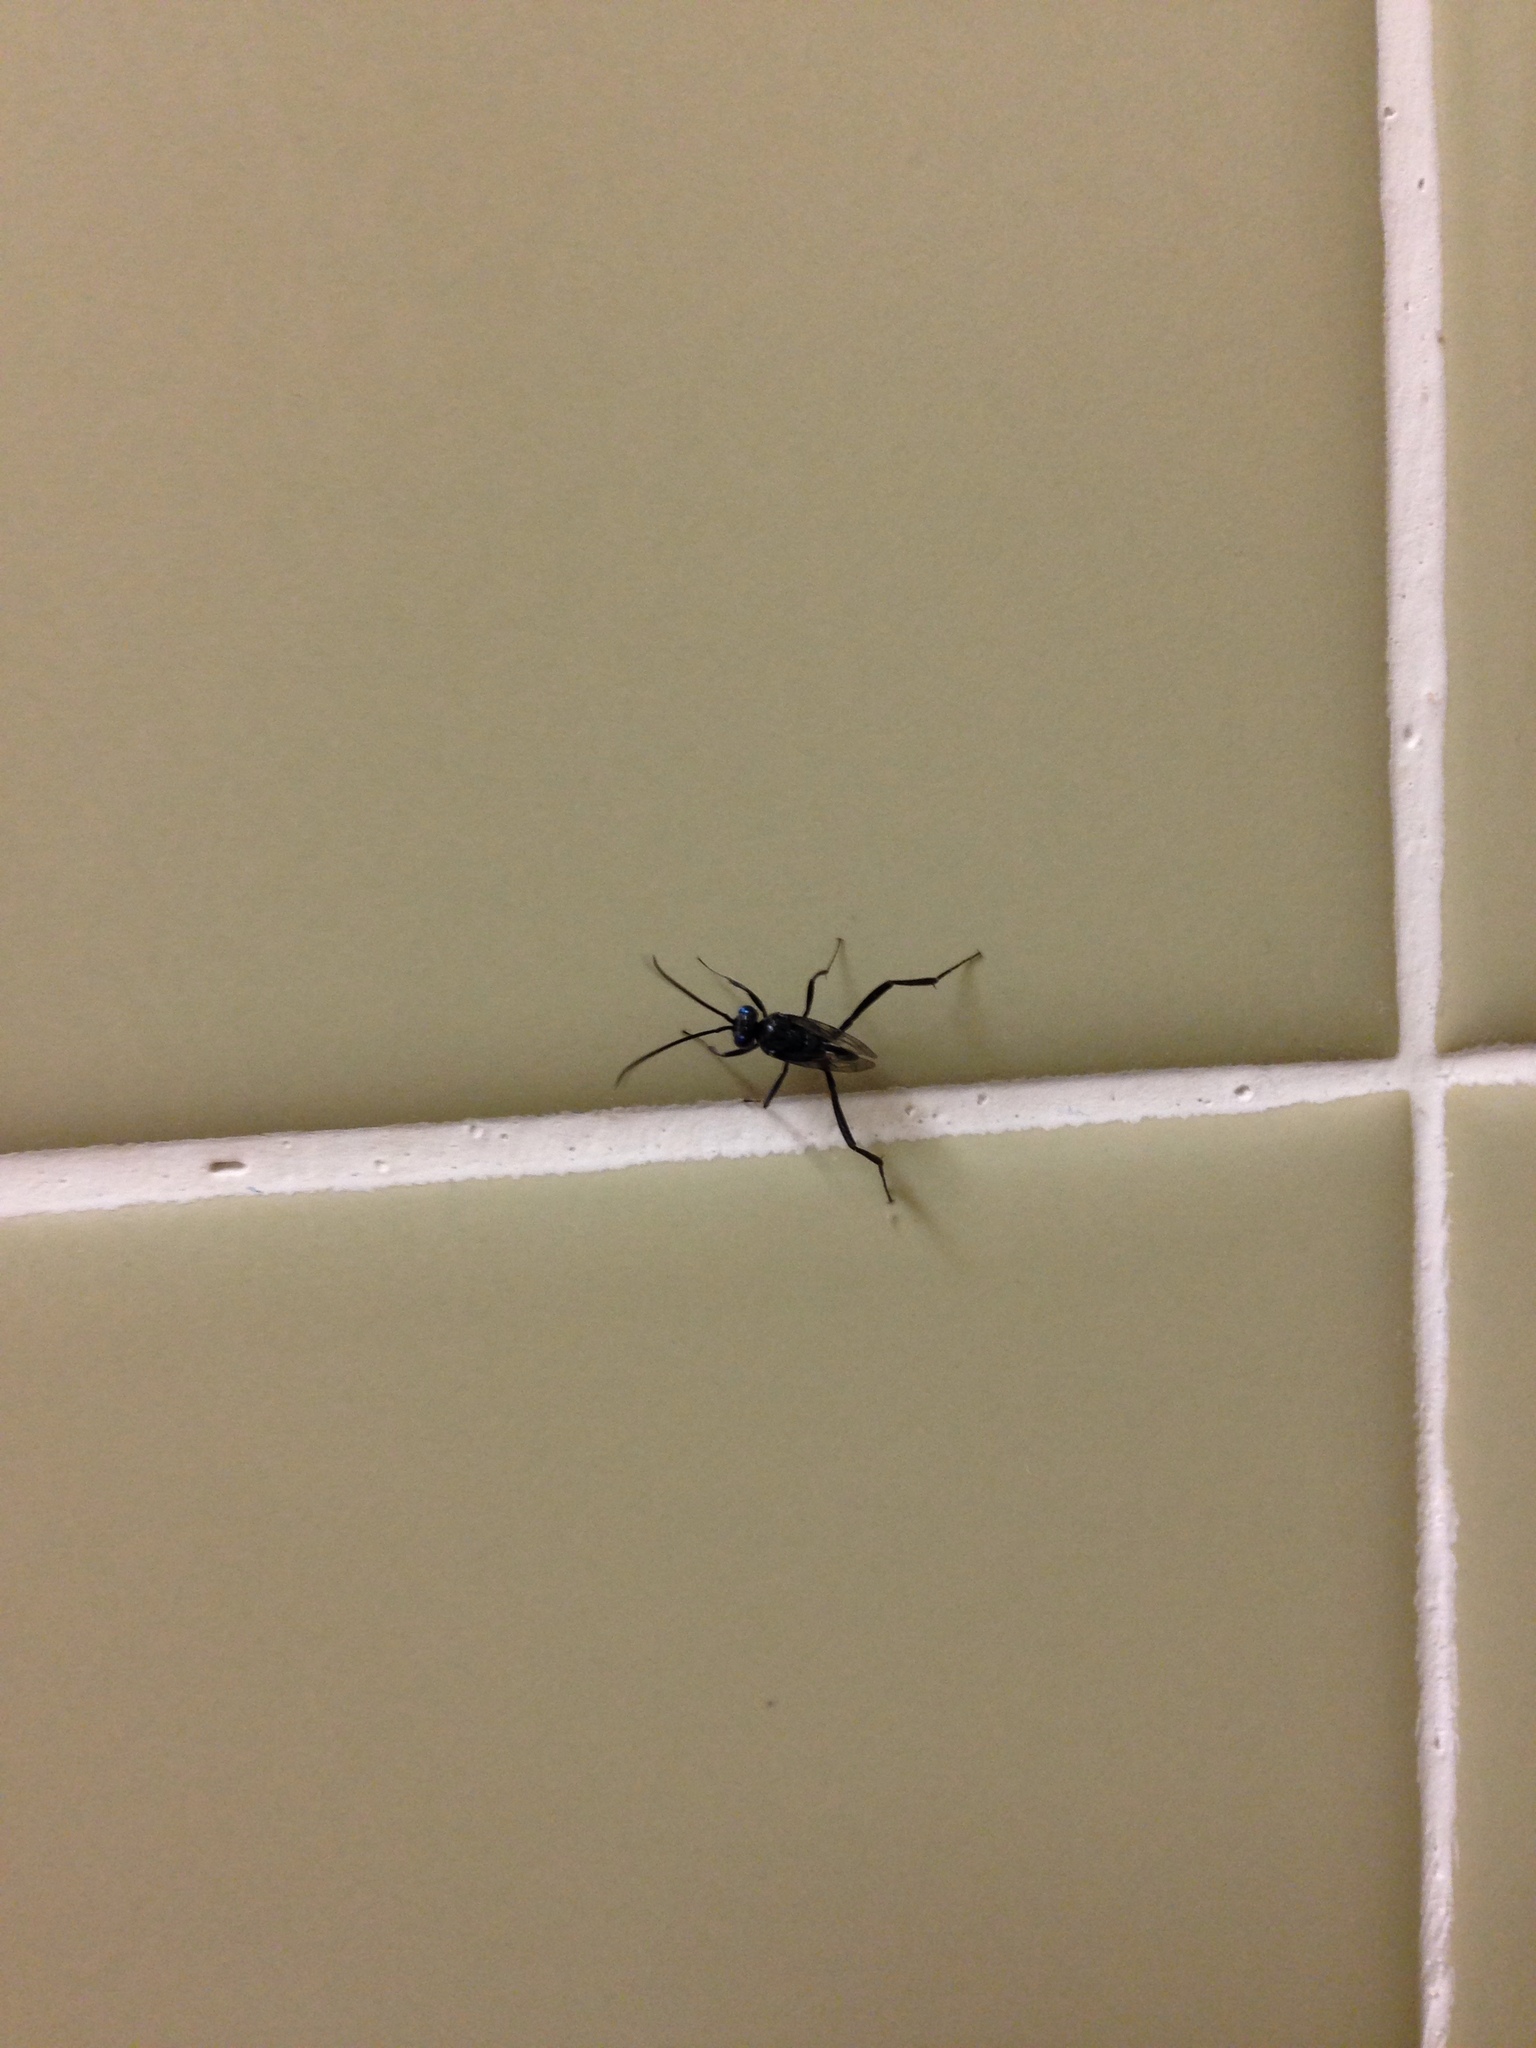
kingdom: Animalia
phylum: Arthropoda
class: Insecta
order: Hymenoptera
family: Evaniidae
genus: Evania
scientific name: Evania appendigaster
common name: Ensign wasp
